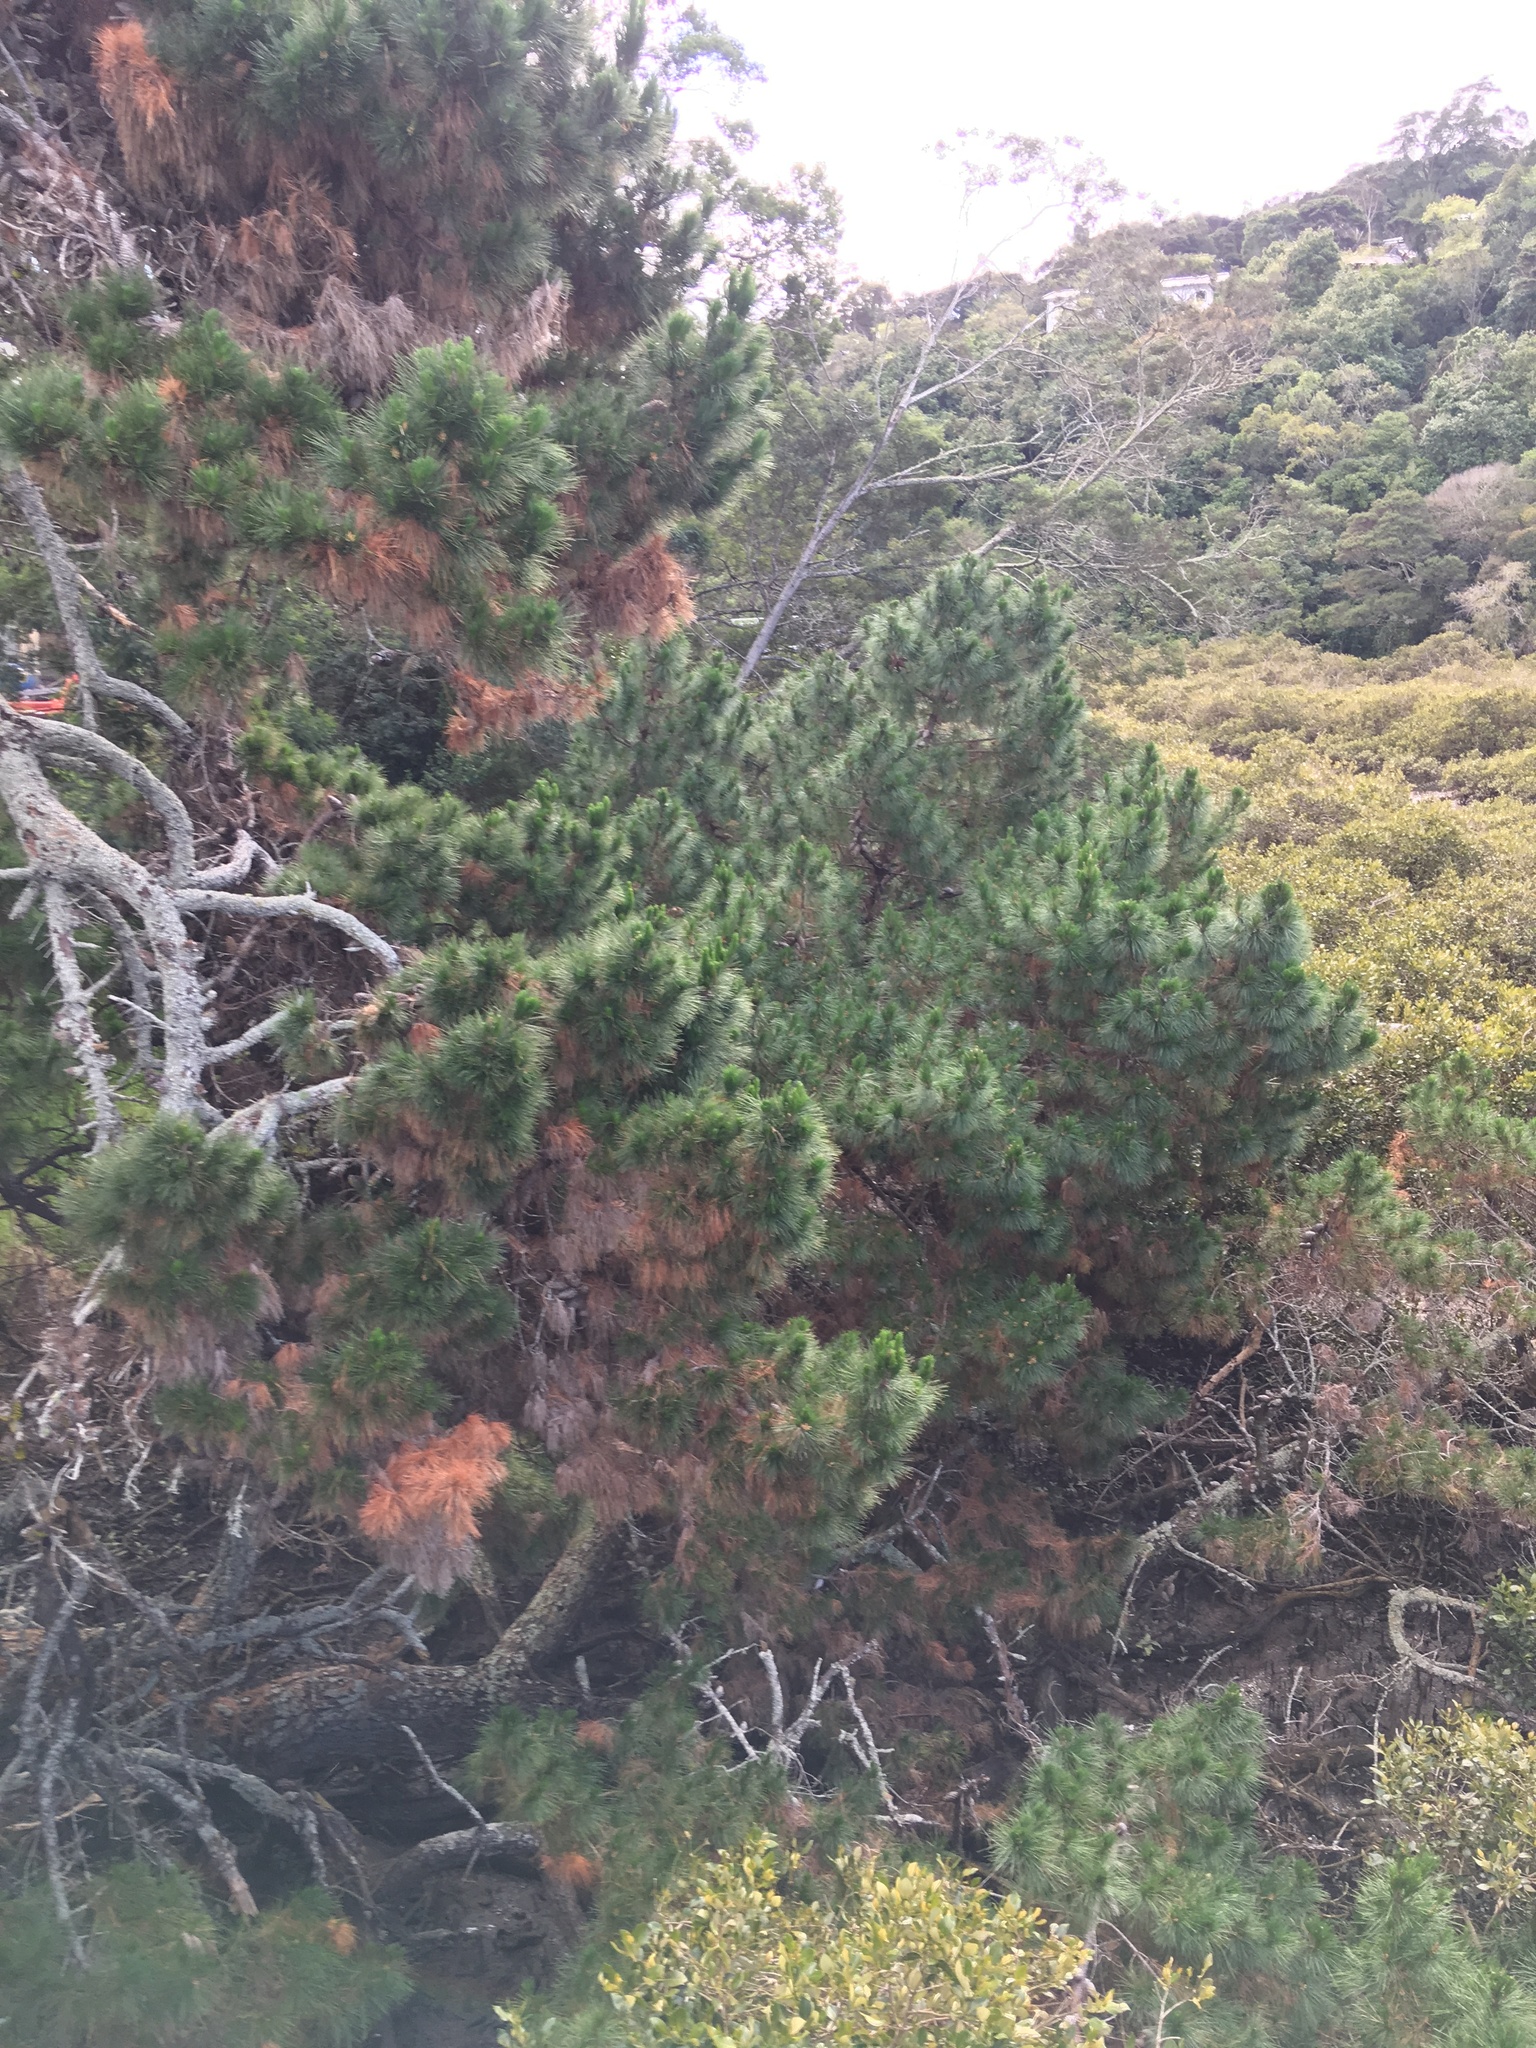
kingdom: Plantae
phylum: Tracheophyta
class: Magnoliopsida
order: Lamiales
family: Acanthaceae
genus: Avicennia
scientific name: Avicennia marina
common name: Gray mangrove
